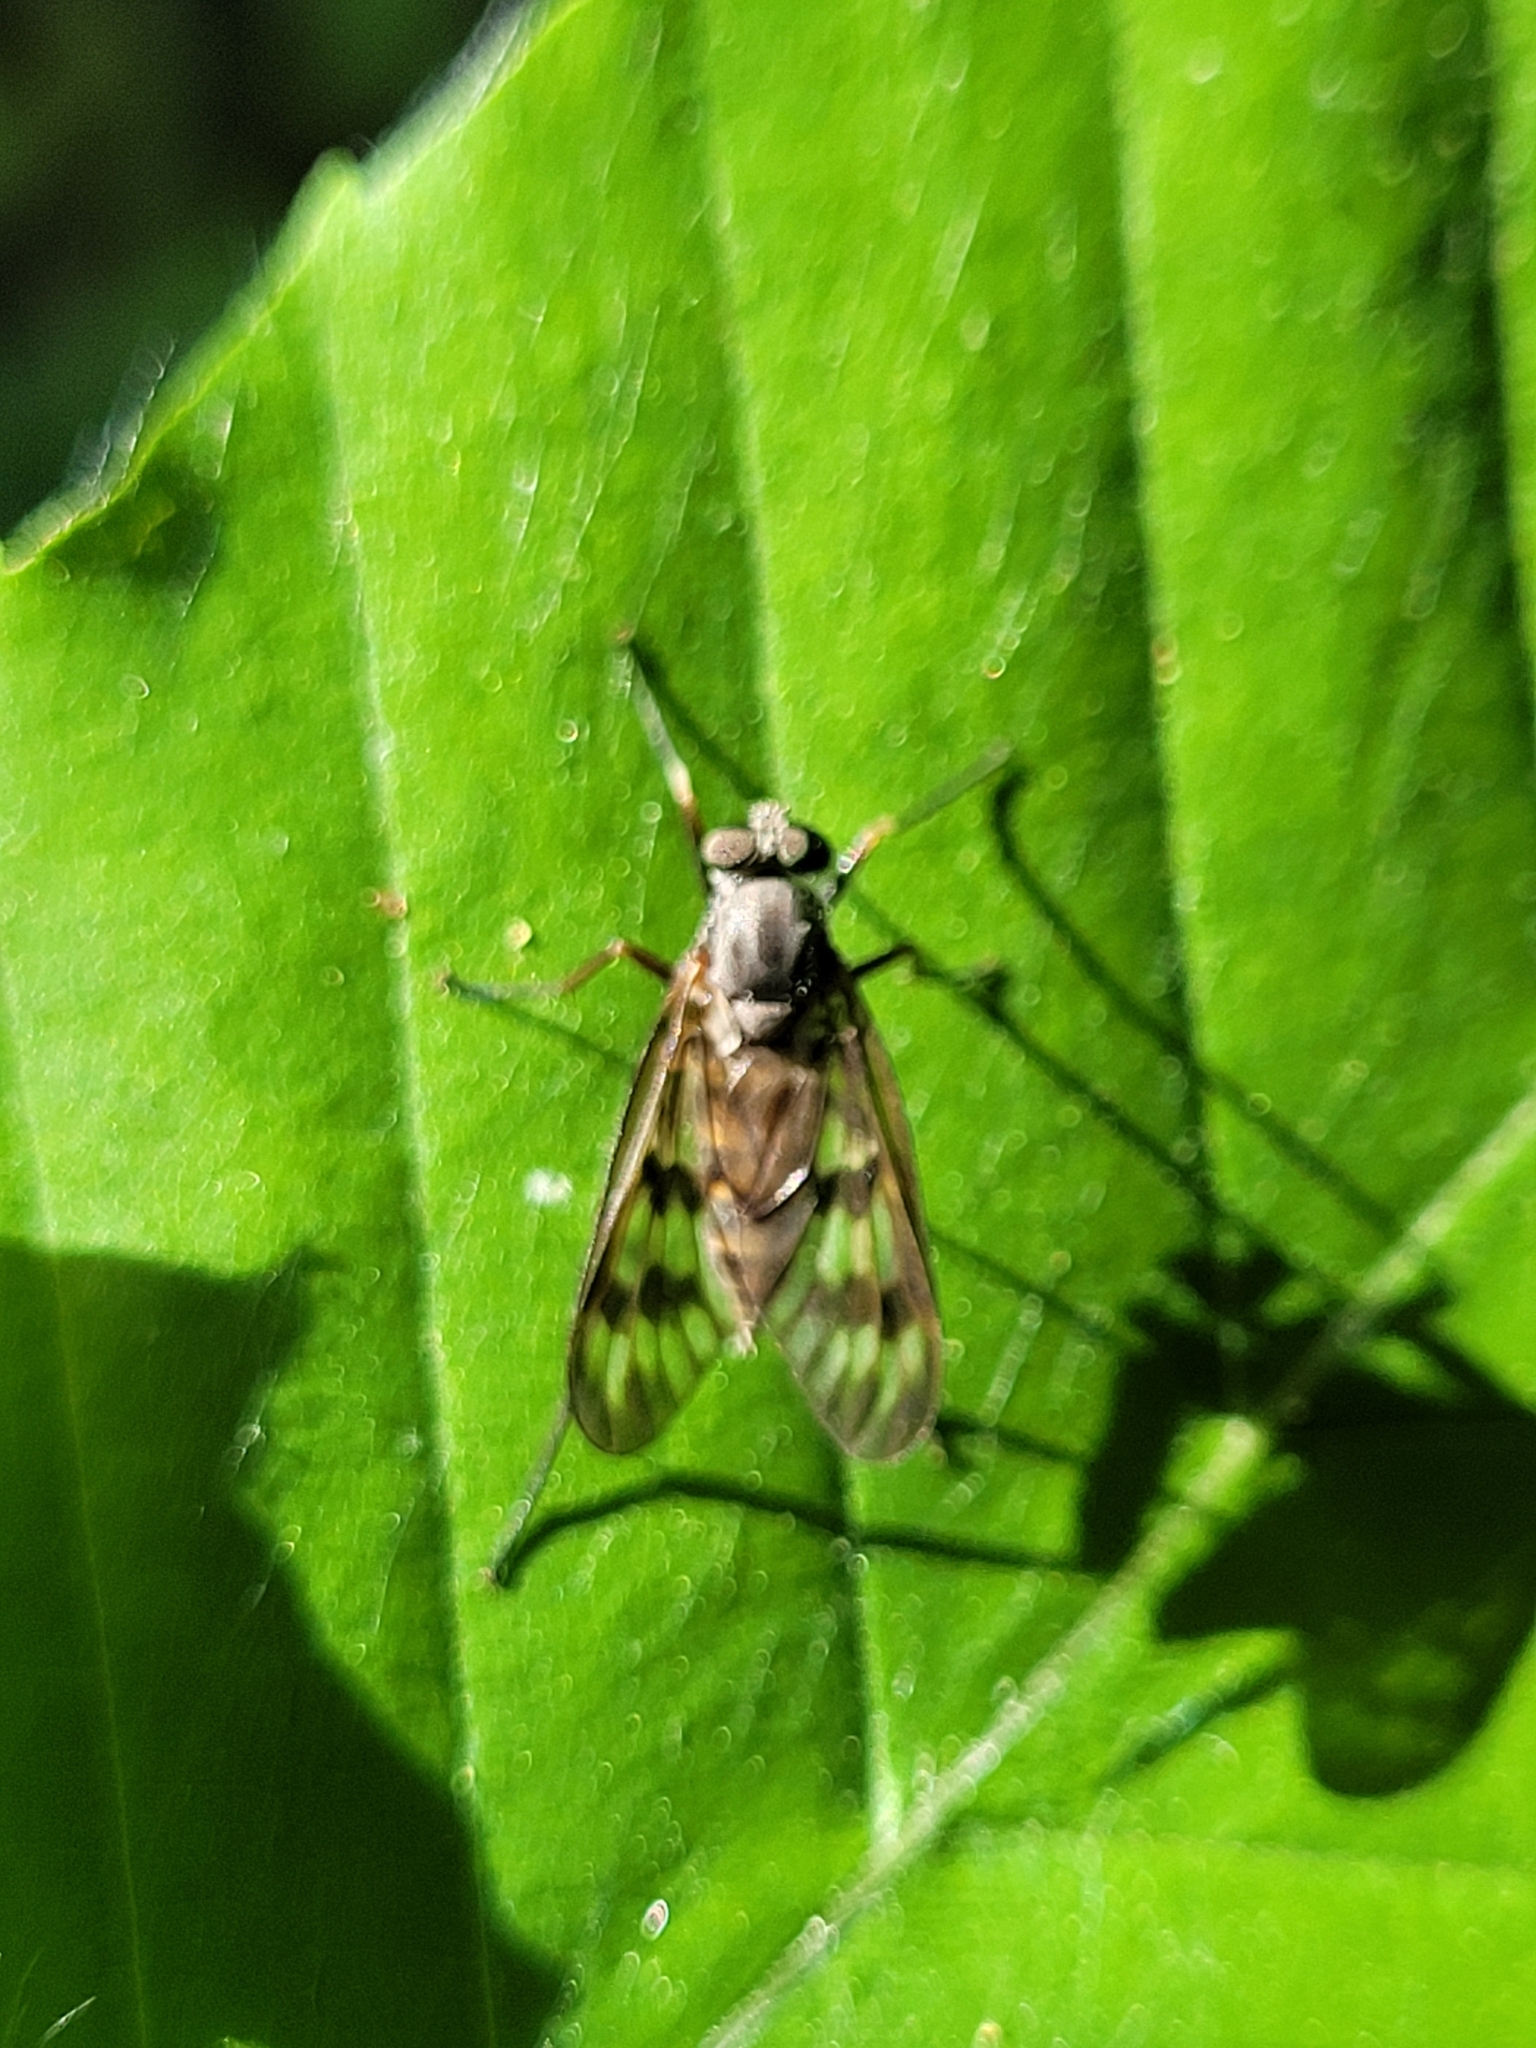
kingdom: Animalia
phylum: Arthropoda
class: Insecta
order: Diptera
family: Rhagionidae
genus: Rhagio
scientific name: Rhagio mystaceus
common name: Common snipe fly
